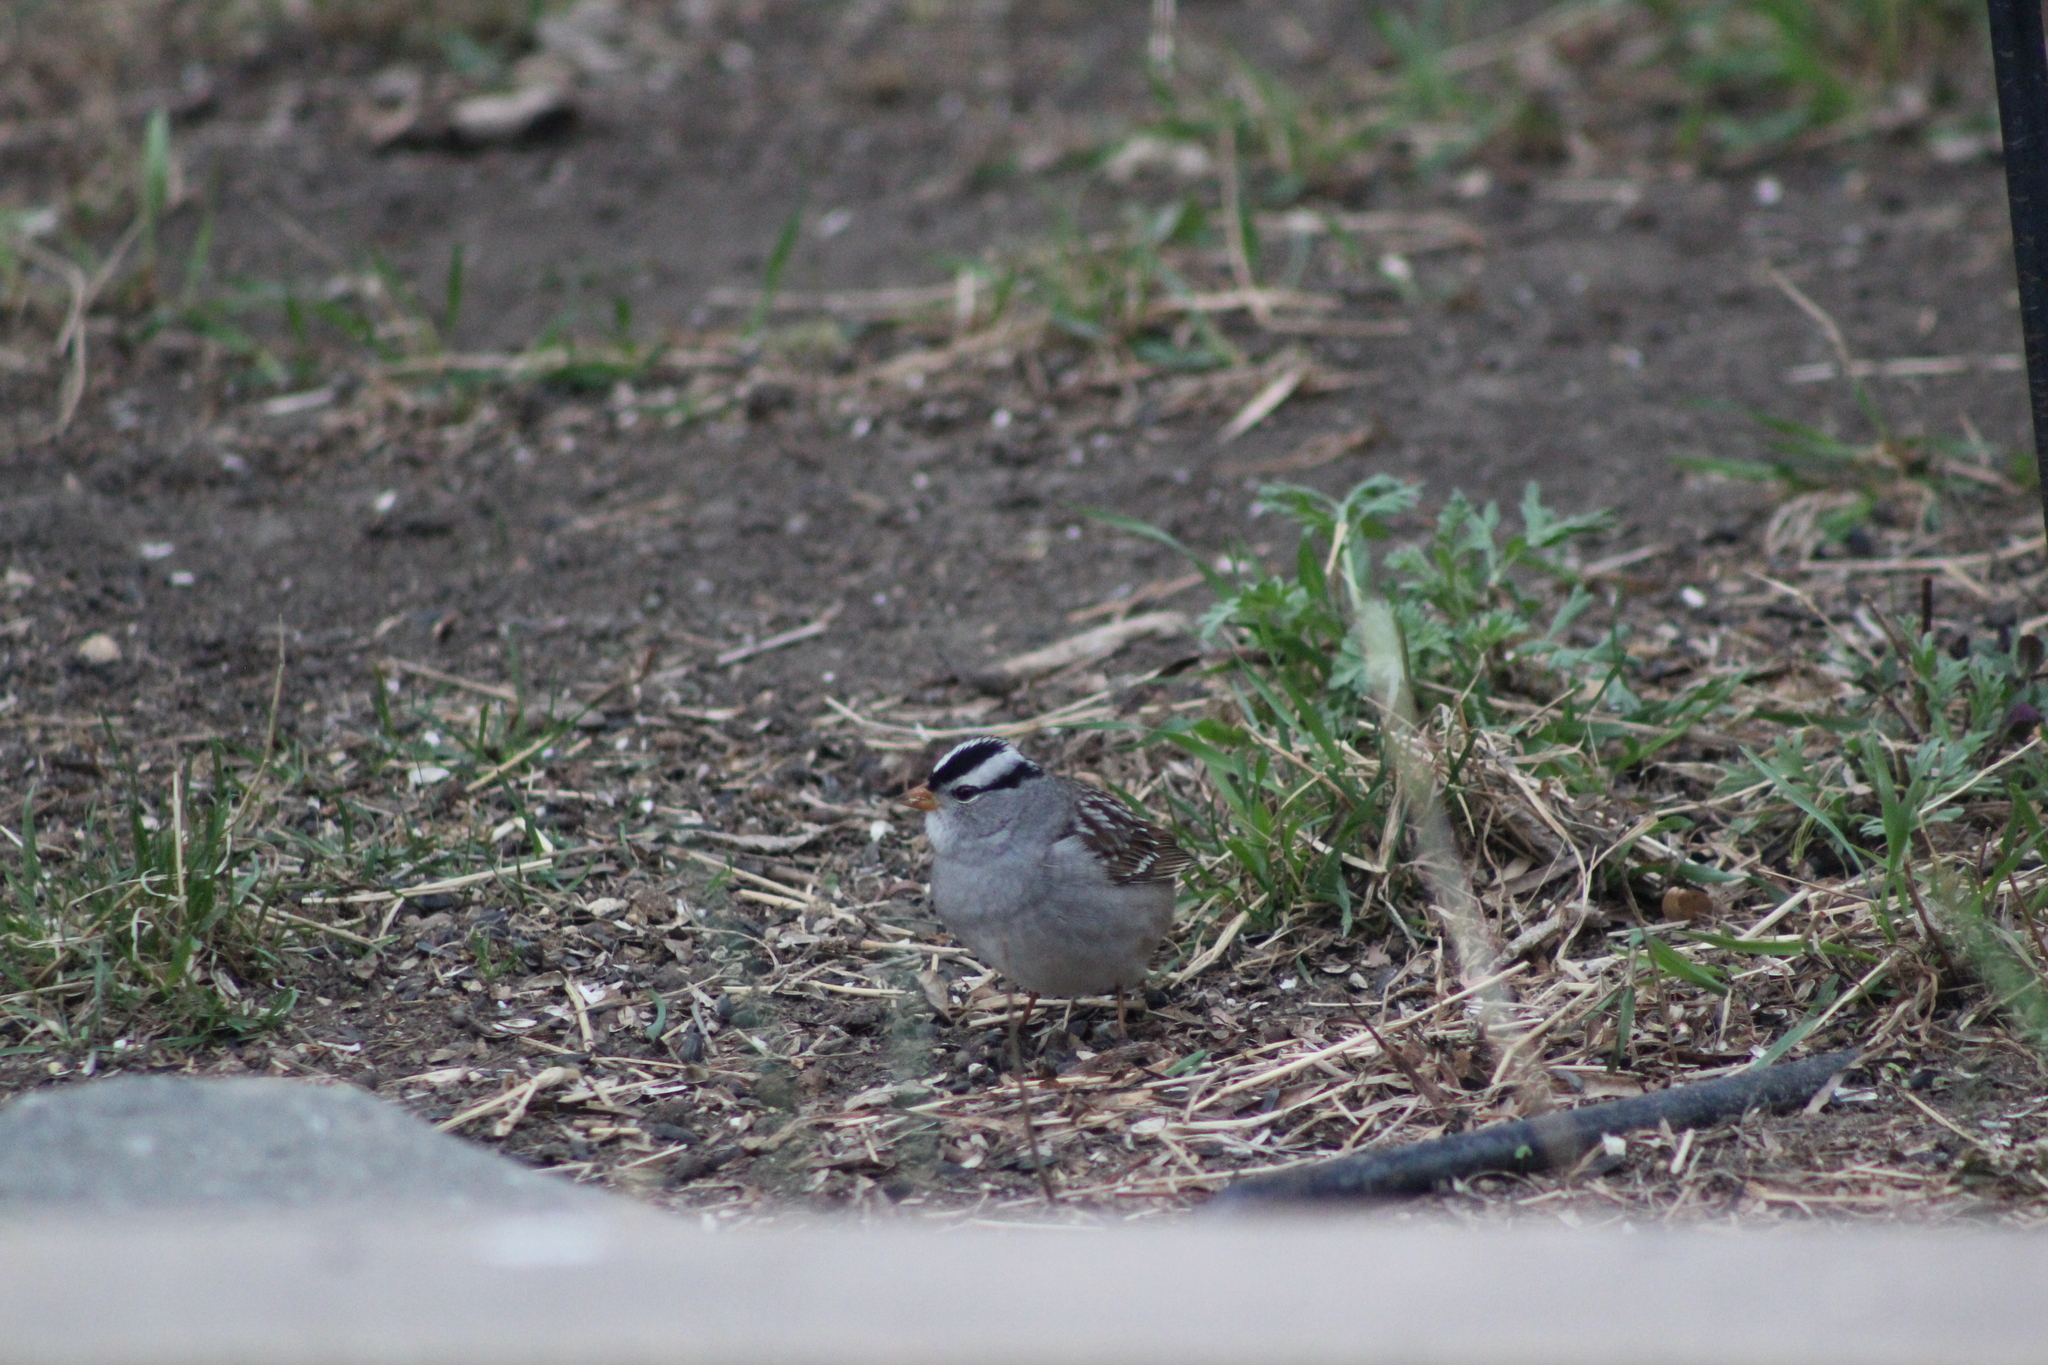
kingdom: Animalia
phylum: Chordata
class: Aves
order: Passeriformes
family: Passerellidae
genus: Zonotrichia
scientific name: Zonotrichia leucophrys
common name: White-crowned sparrow
